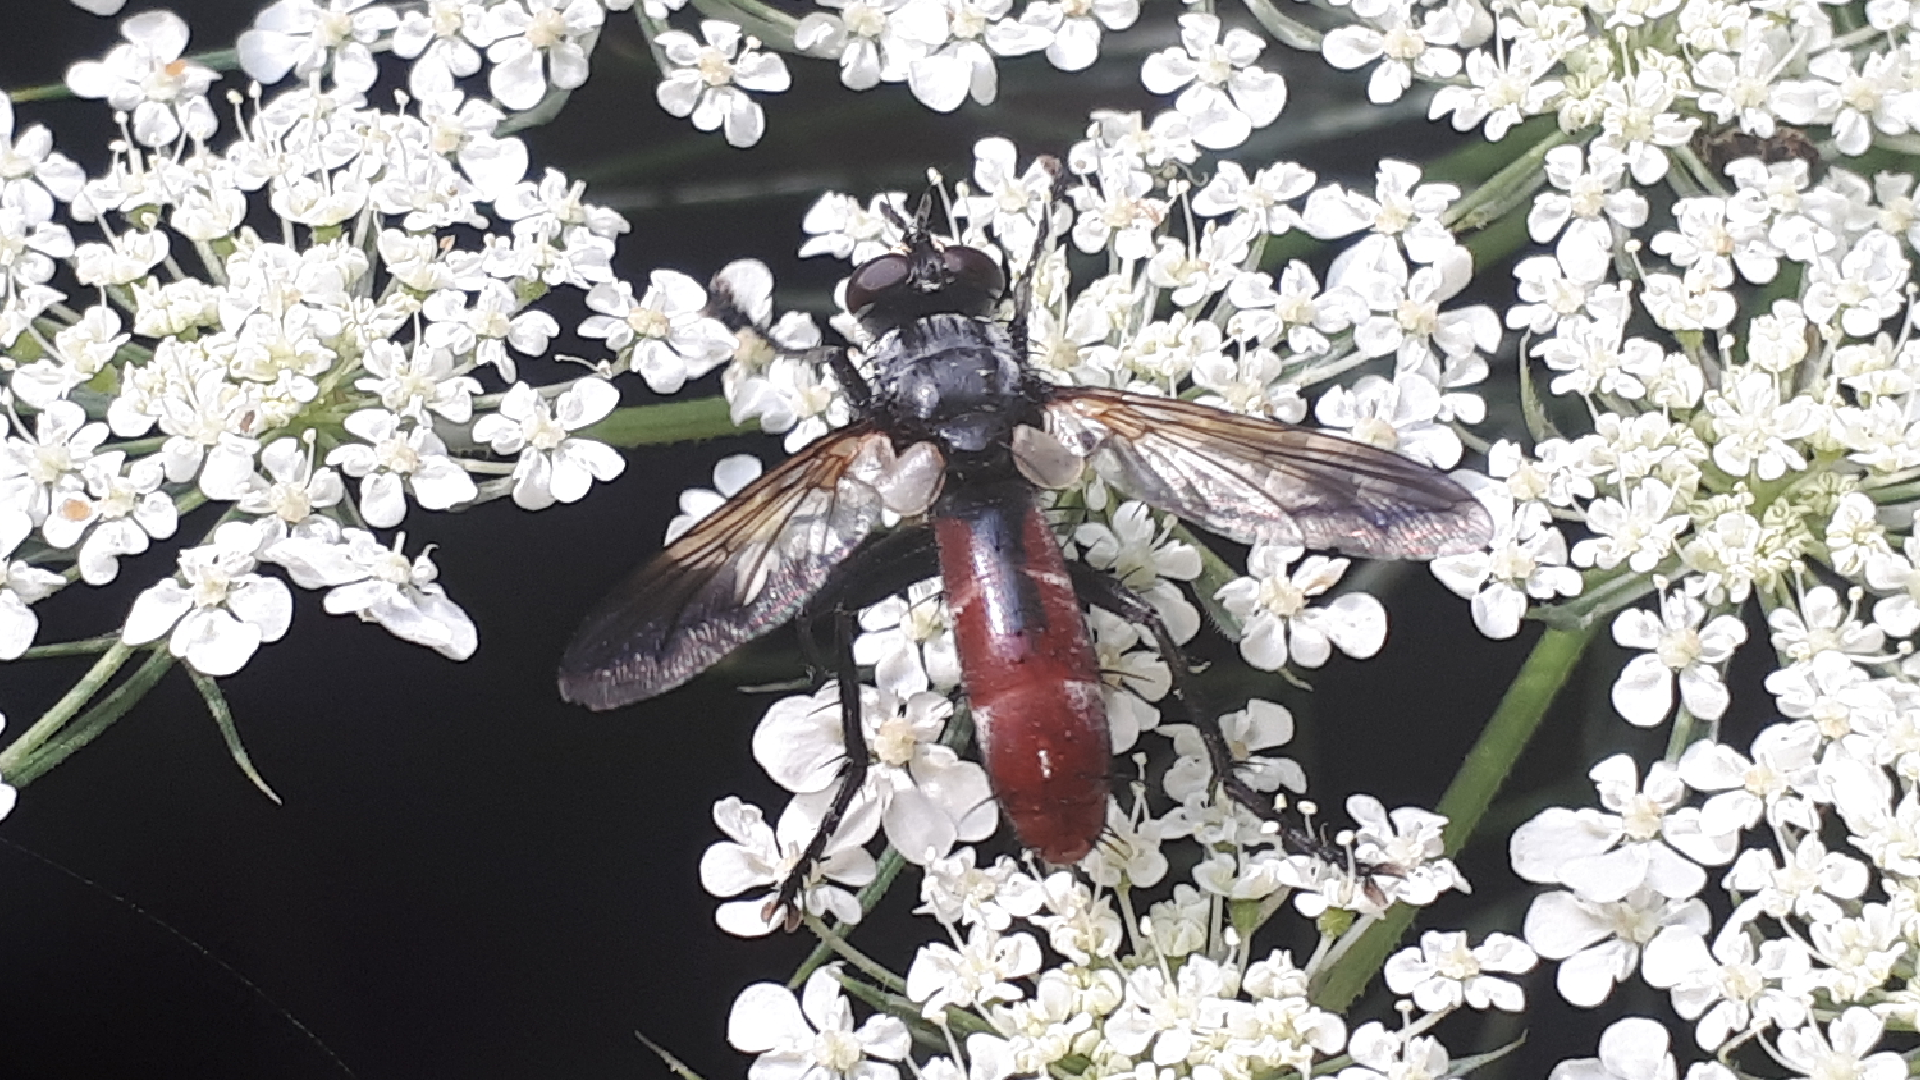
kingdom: Animalia
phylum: Arthropoda
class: Insecta
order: Diptera
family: Tachinidae
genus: Cylindromyia
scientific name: Cylindromyia bicolor
